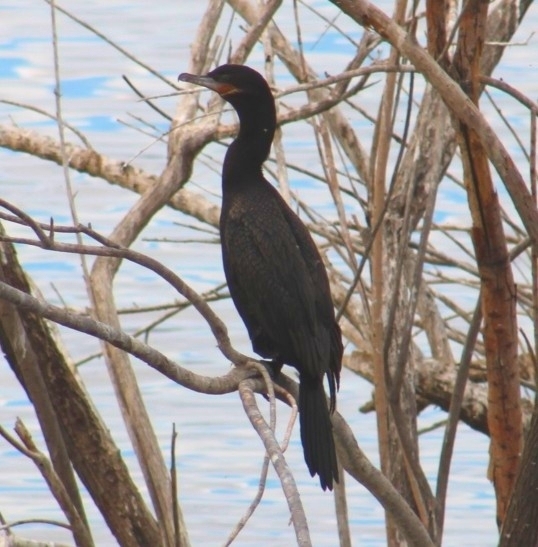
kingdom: Animalia
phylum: Chordata
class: Aves
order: Suliformes
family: Phalacrocoracidae
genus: Phalacrocorax
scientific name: Phalacrocorax brasilianus
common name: Neotropic cormorant
